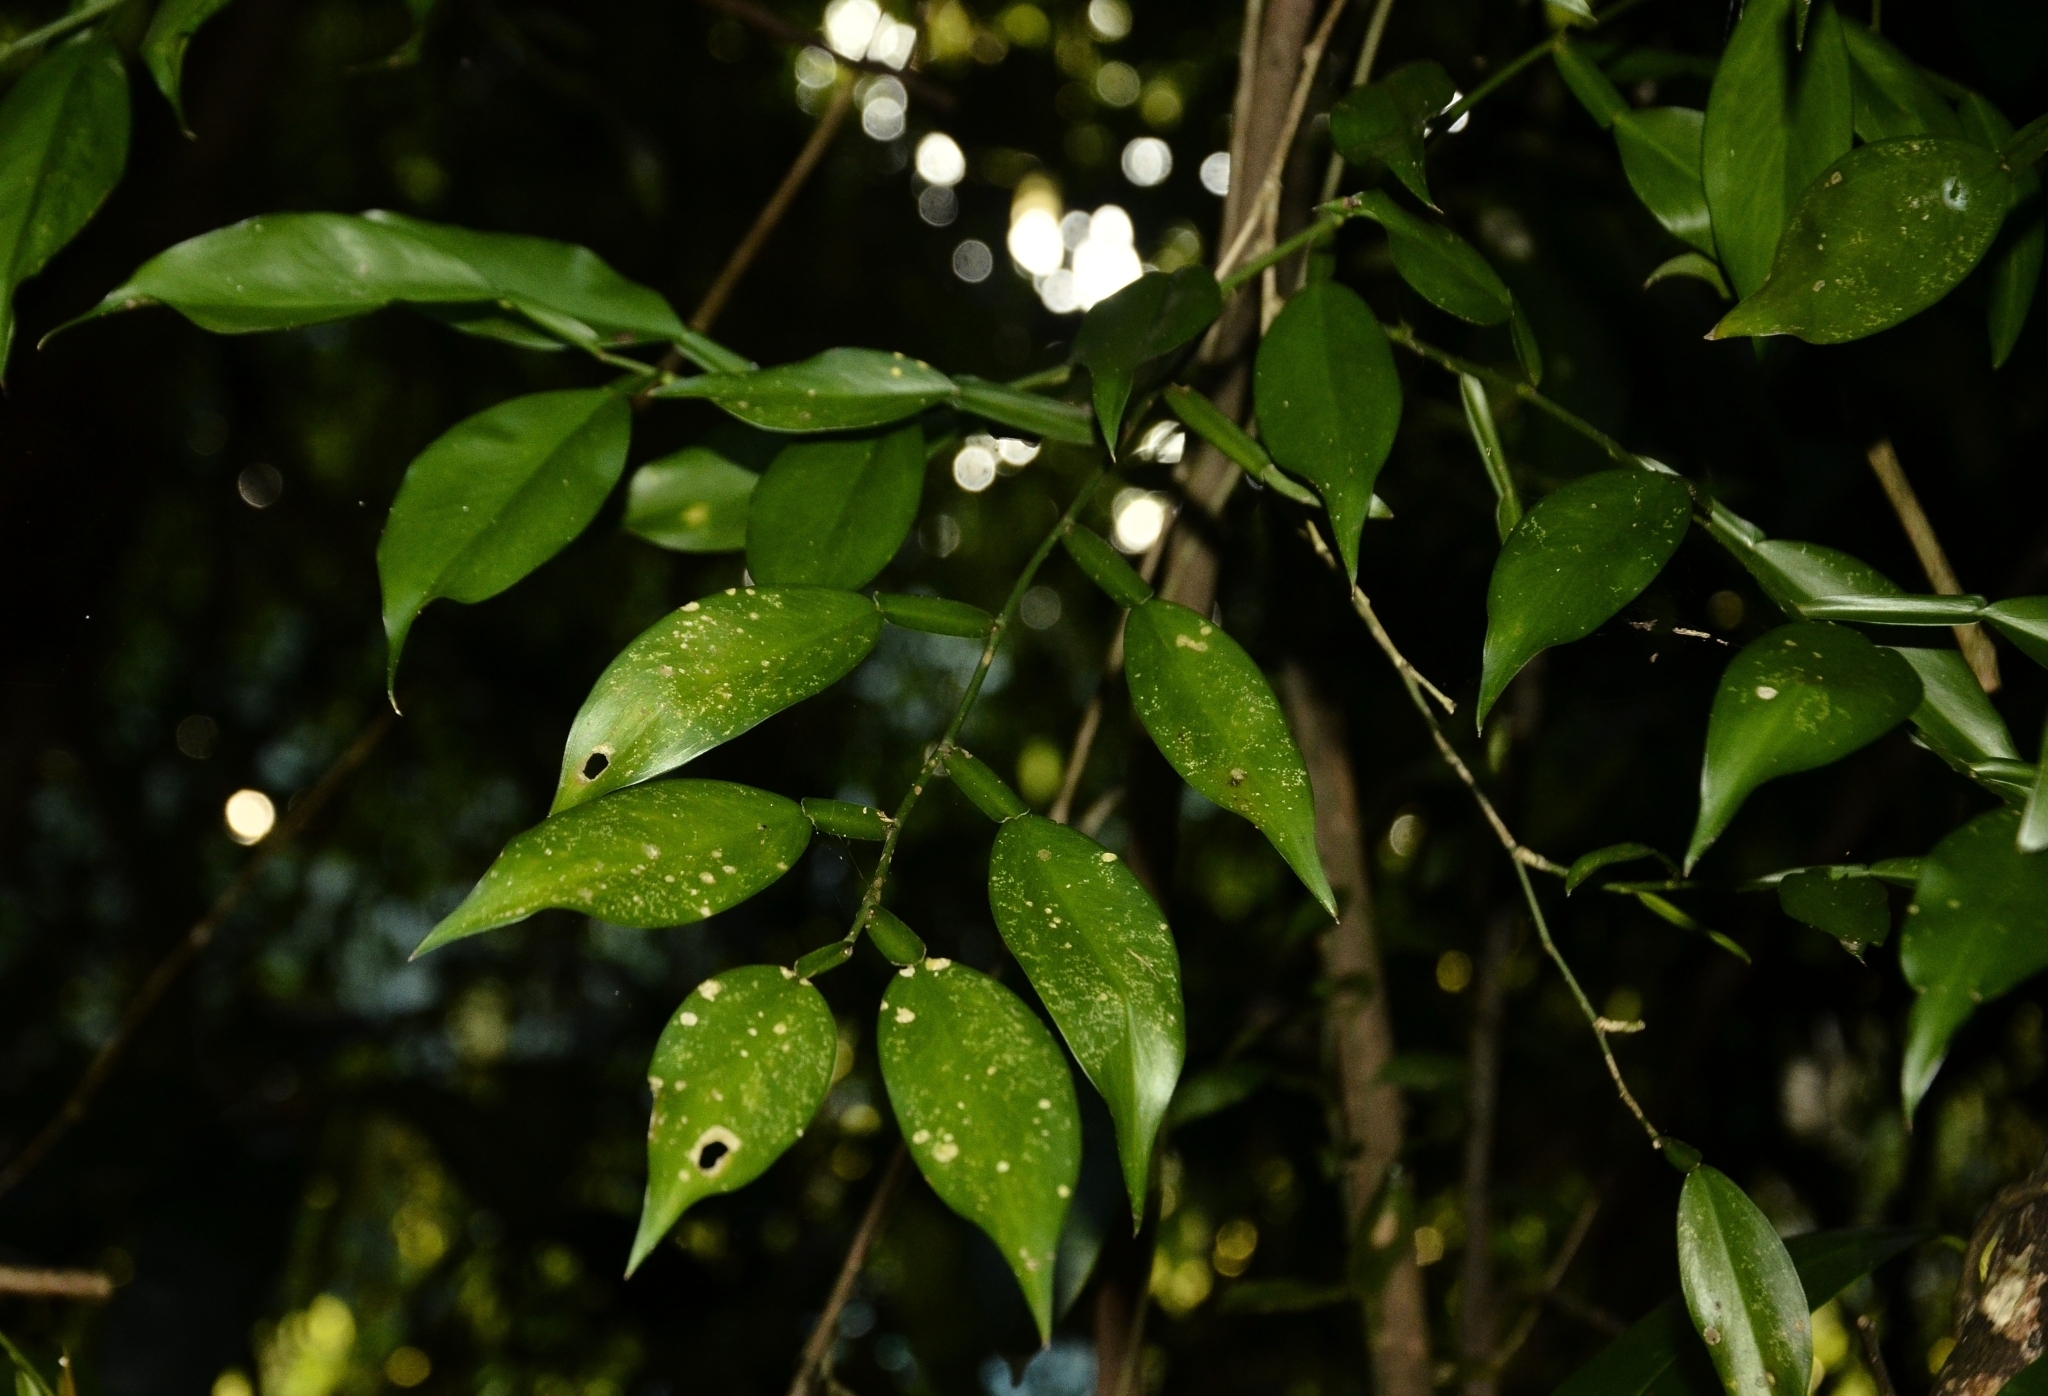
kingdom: Plantae
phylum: Tracheophyta
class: Liliopsida
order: Alismatales
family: Araceae
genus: Pothos
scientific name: Pothos chinensis
